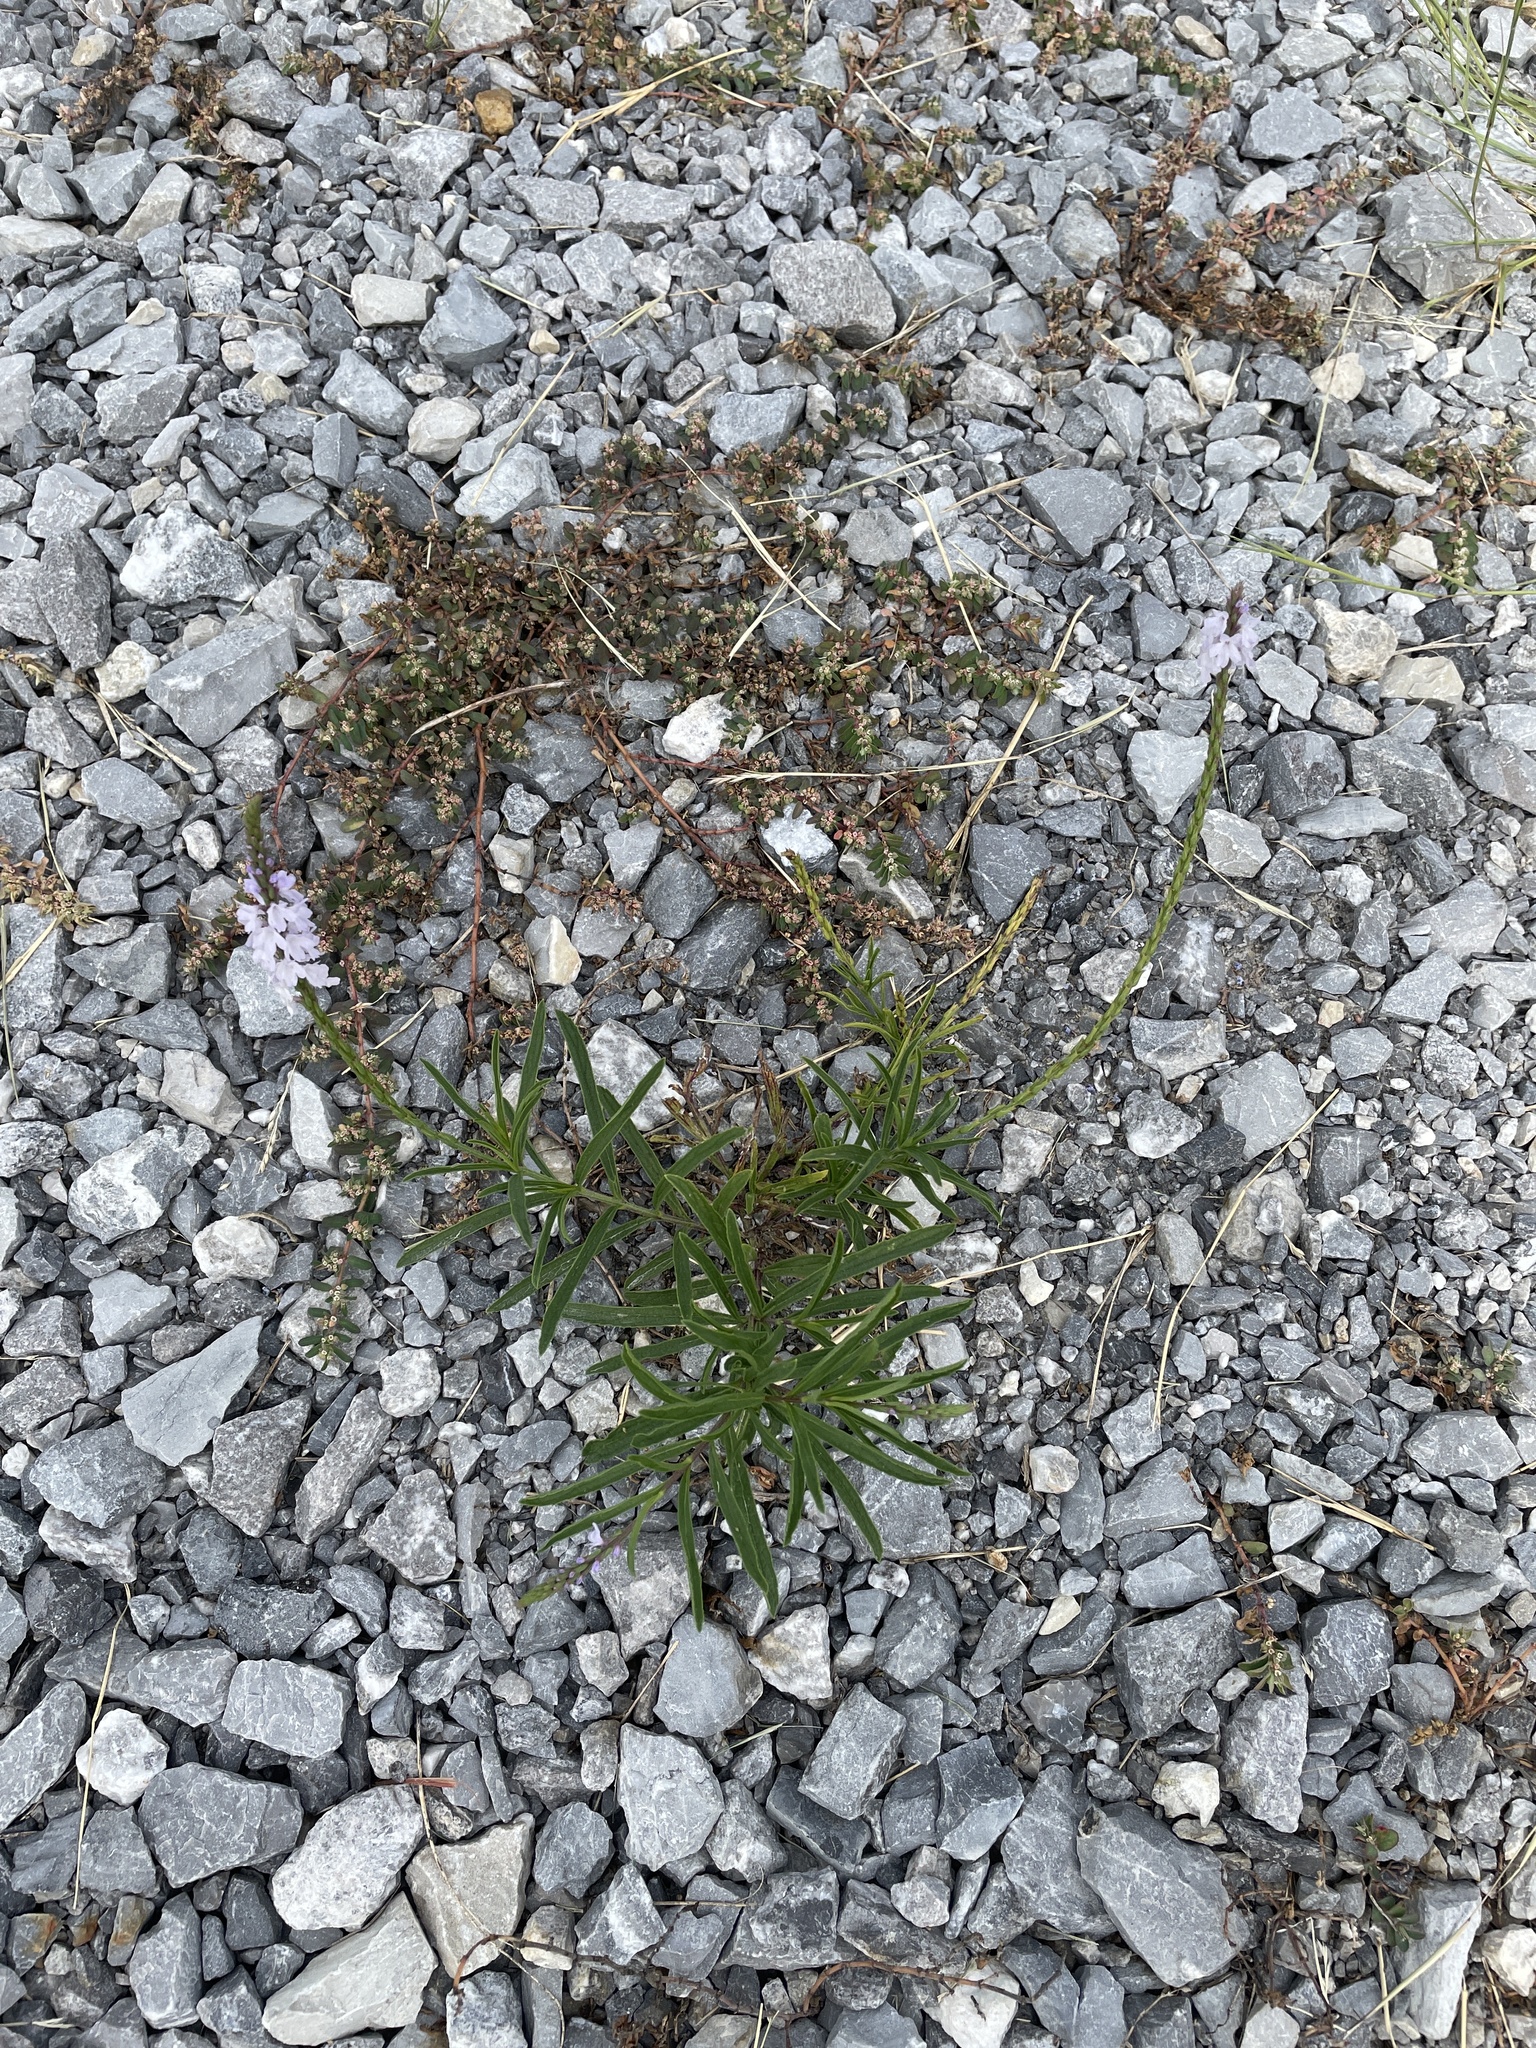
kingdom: Plantae
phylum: Tracheophyta
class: Magnoliopsida
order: Lamiales
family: Verbenaceae
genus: Verbena
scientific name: Verbena simplex
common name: Narrow-leaf vervain
